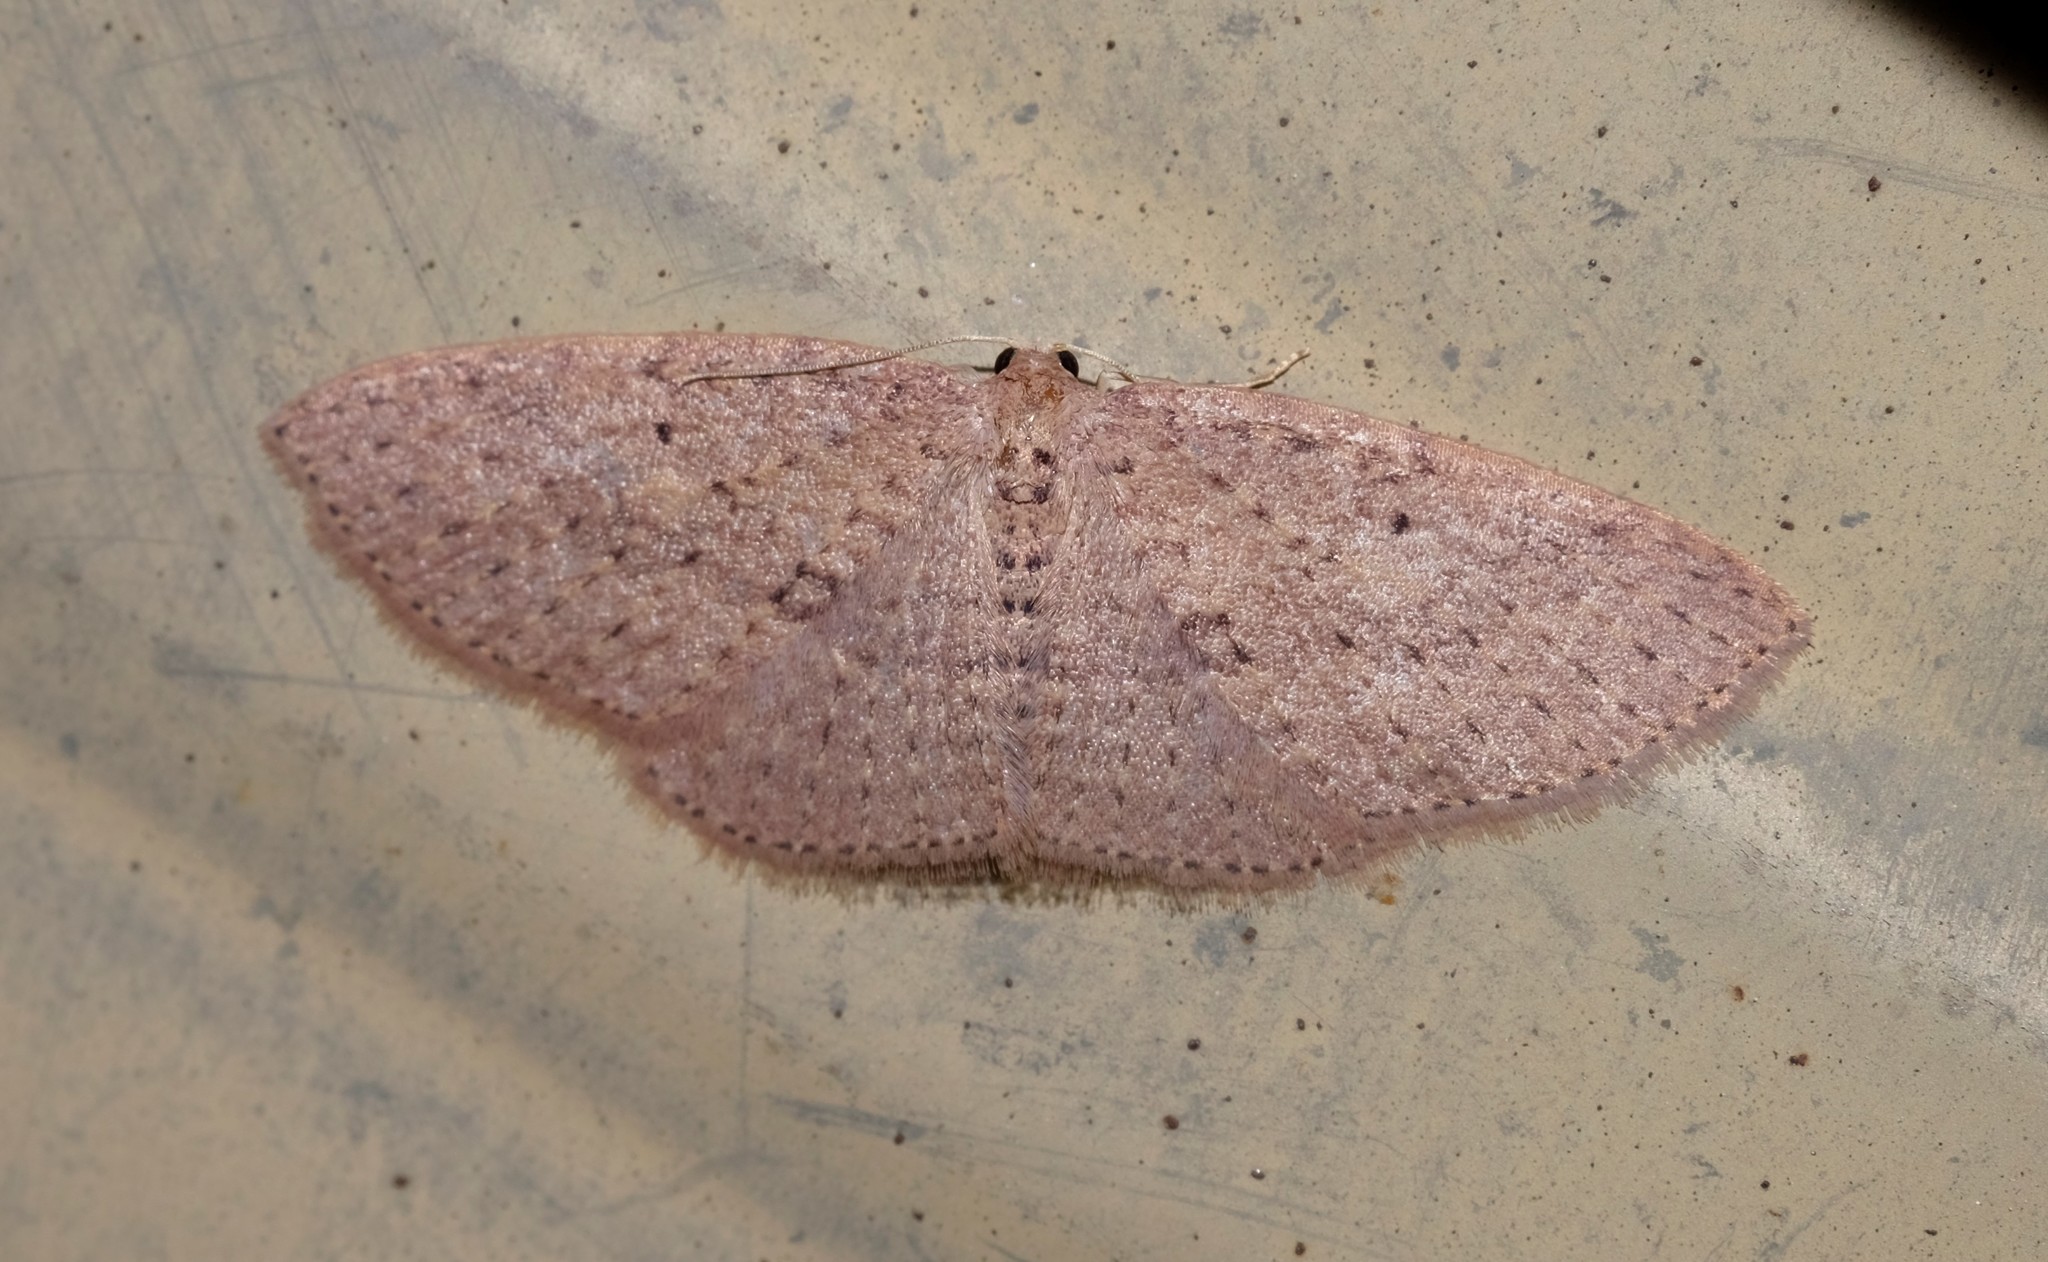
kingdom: Animalia
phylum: Arthropoda
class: Insecta
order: Lepidoptera
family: Geometridae
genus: Poecilasthena
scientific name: Poecilasthena anthodes
